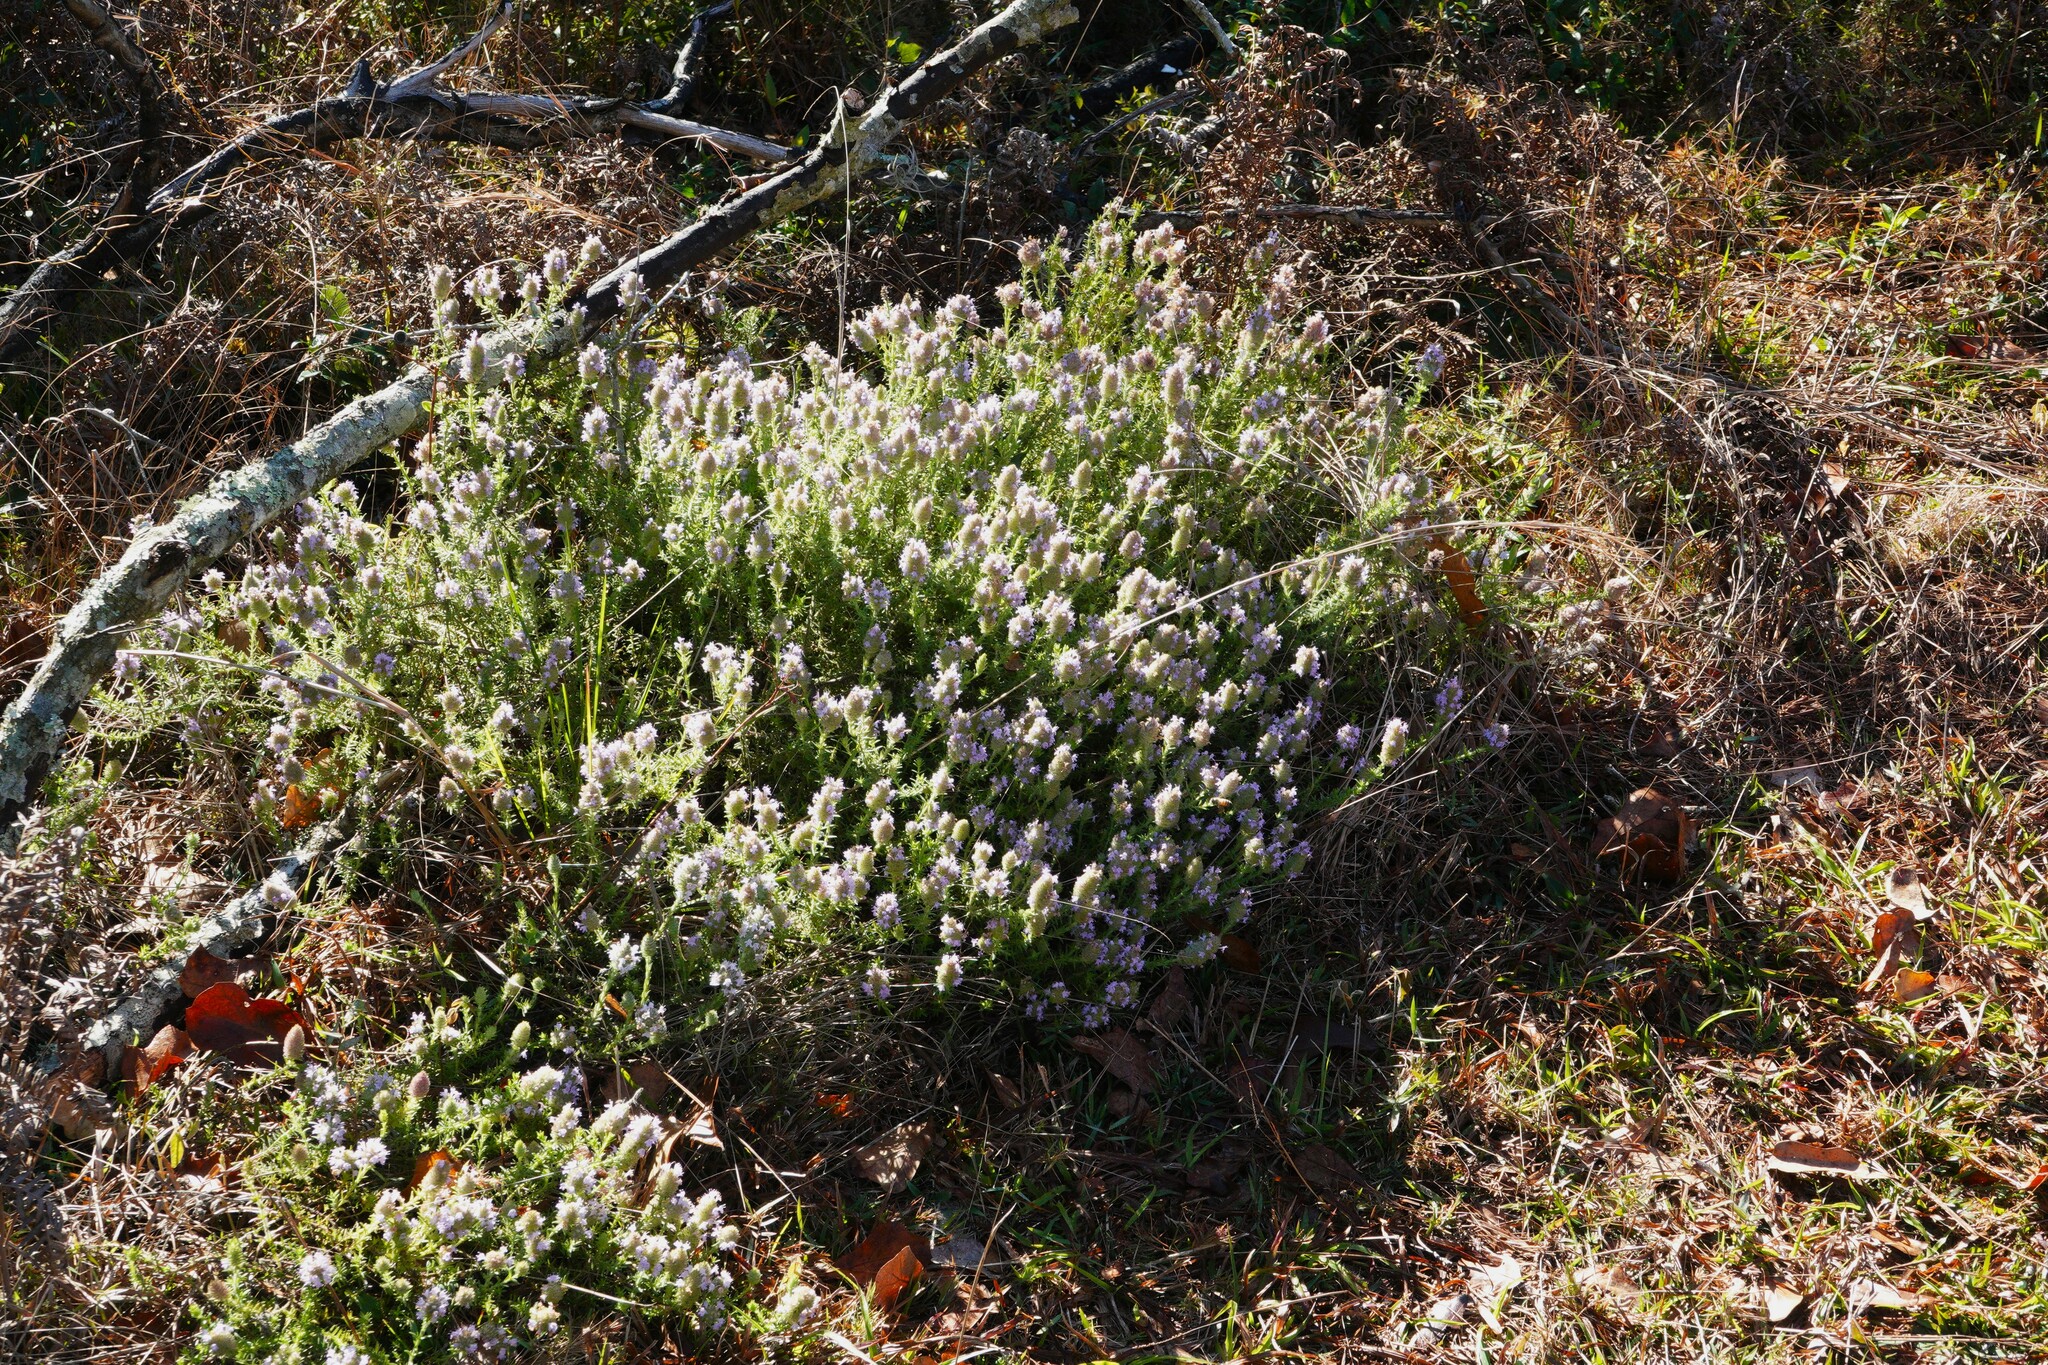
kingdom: Plantae
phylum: Tracheophyta
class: Magnoliopsida
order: Lamiales
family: Lamiaceae
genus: Piloblephis
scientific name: Piloblephis rigida
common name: Wild pennyroyal
